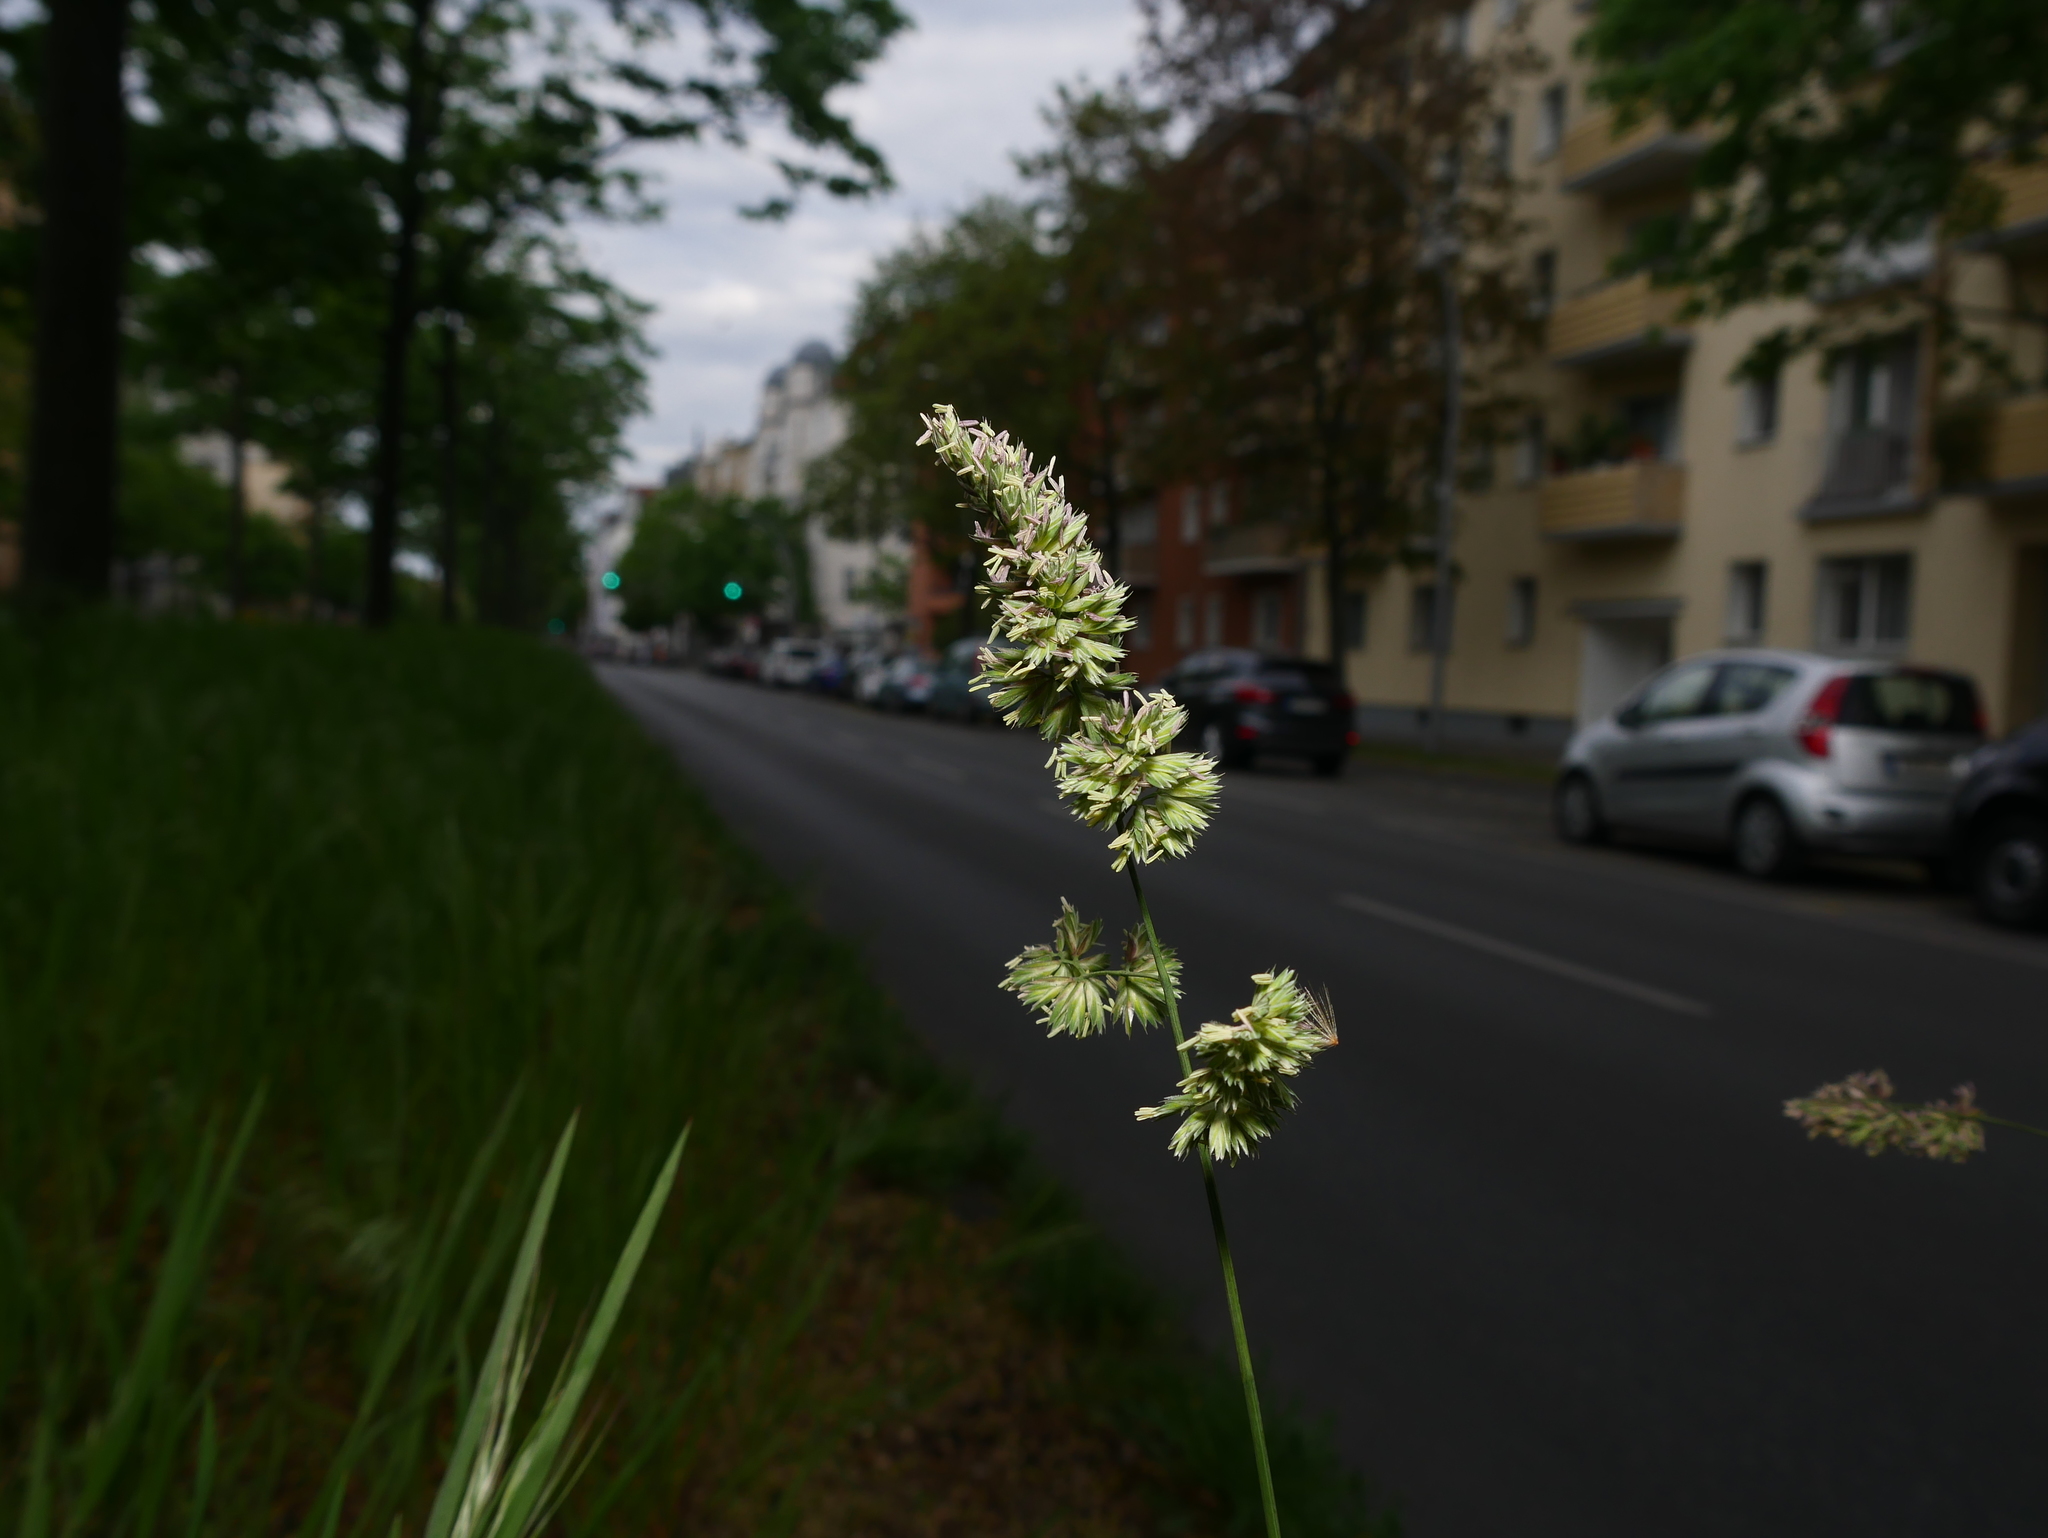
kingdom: Plantae
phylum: Tracheophyta
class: Liliopsida
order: Poales
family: Poaceae
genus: Dactylis
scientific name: Dactylis glomerata
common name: Orchardgrass
